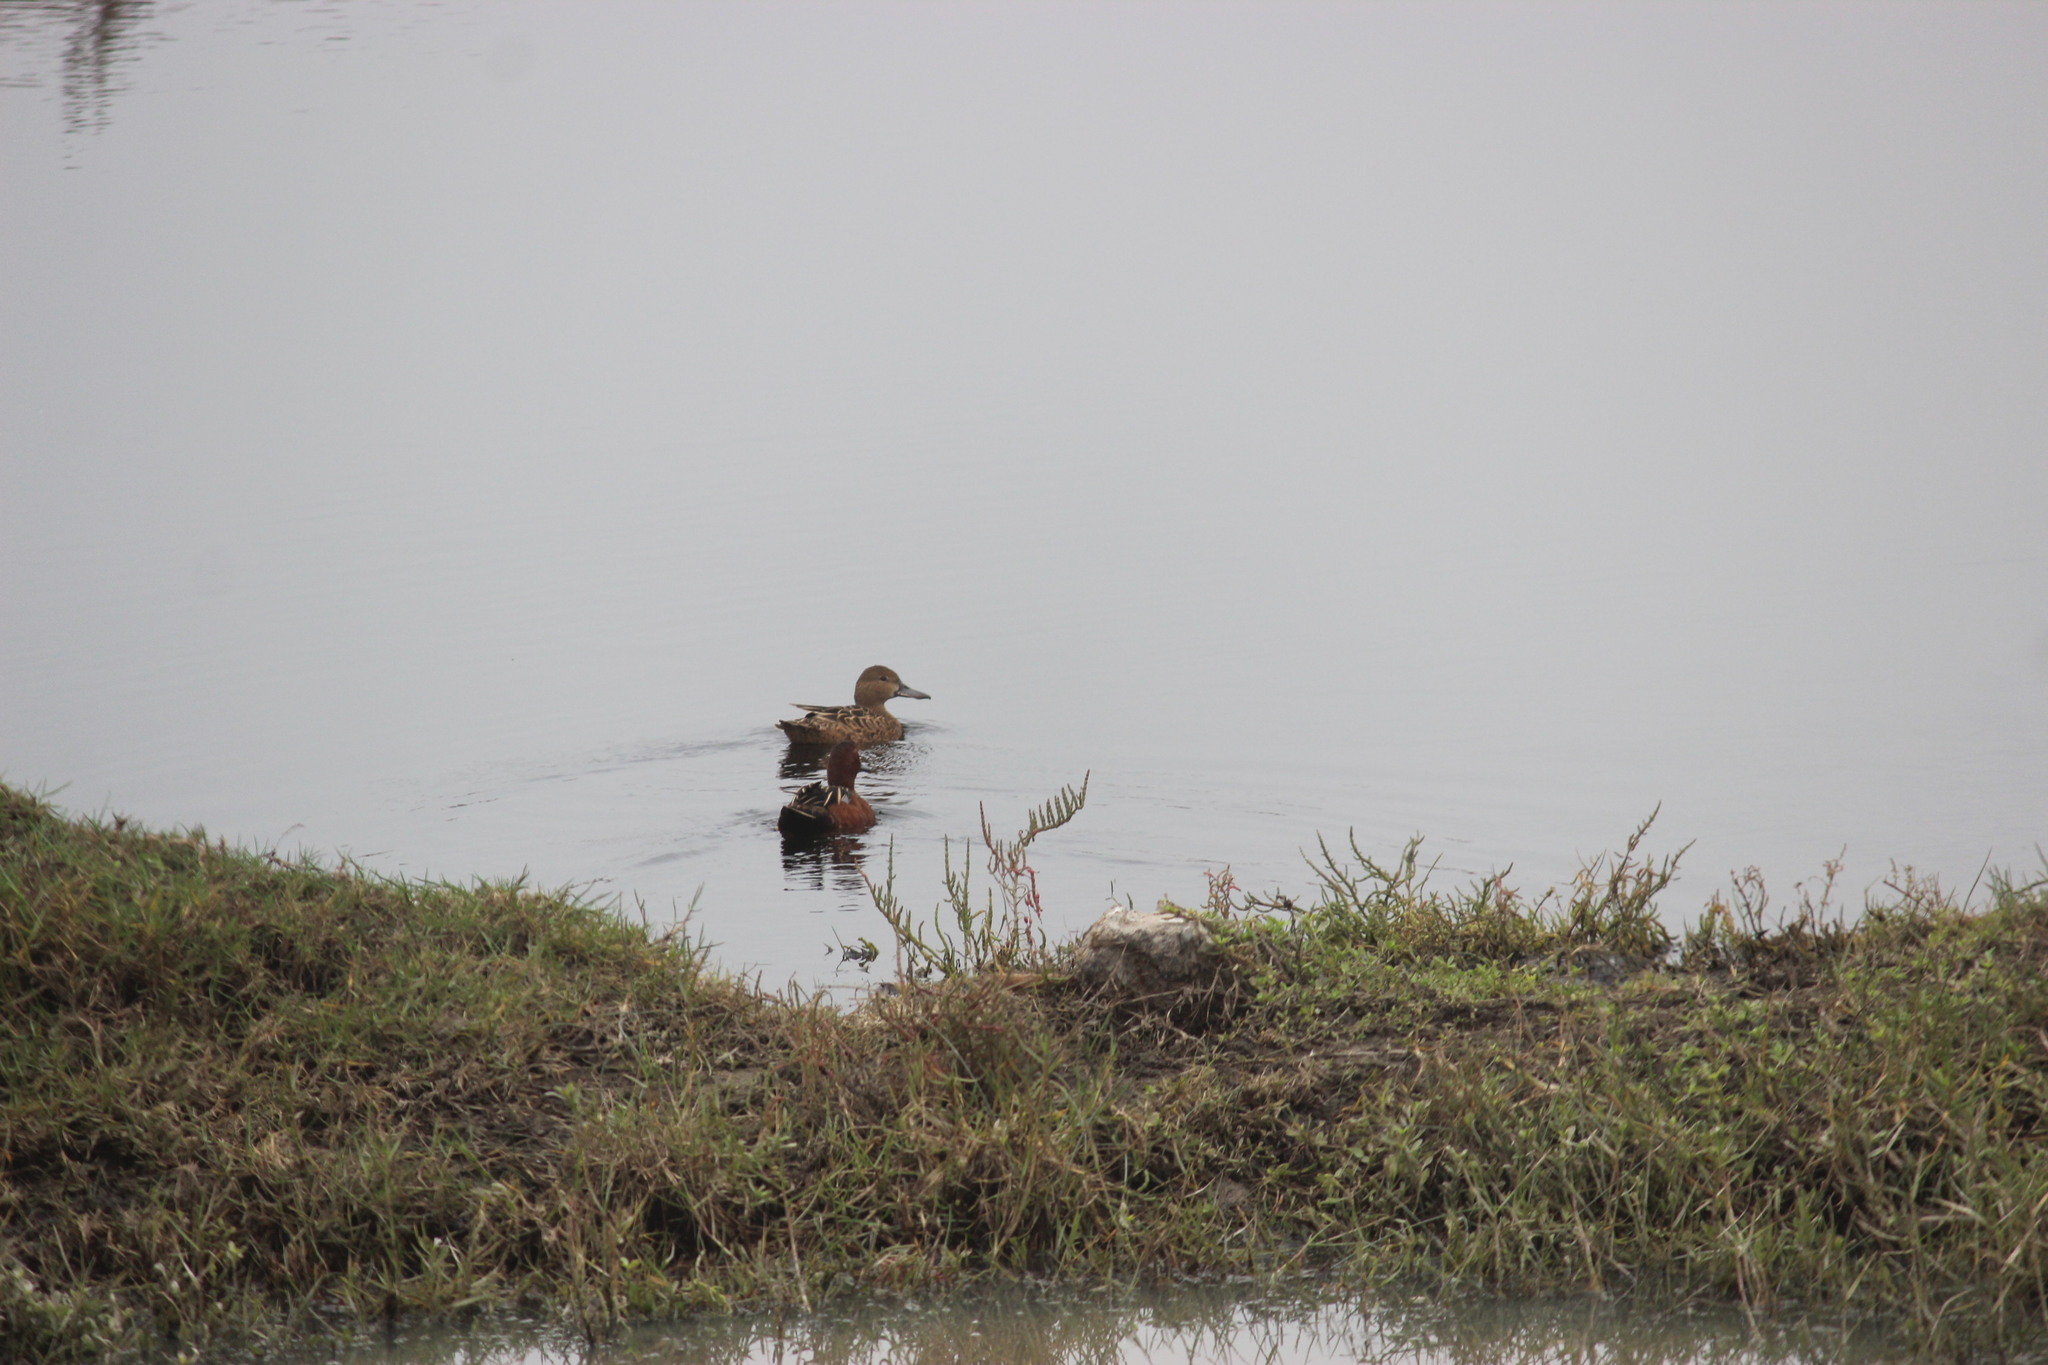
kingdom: Animalia
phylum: Chordata
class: Aves
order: Anseriformes
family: Anatidae
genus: Spatula
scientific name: Spatula cyanoptera
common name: Cinnamon teal
